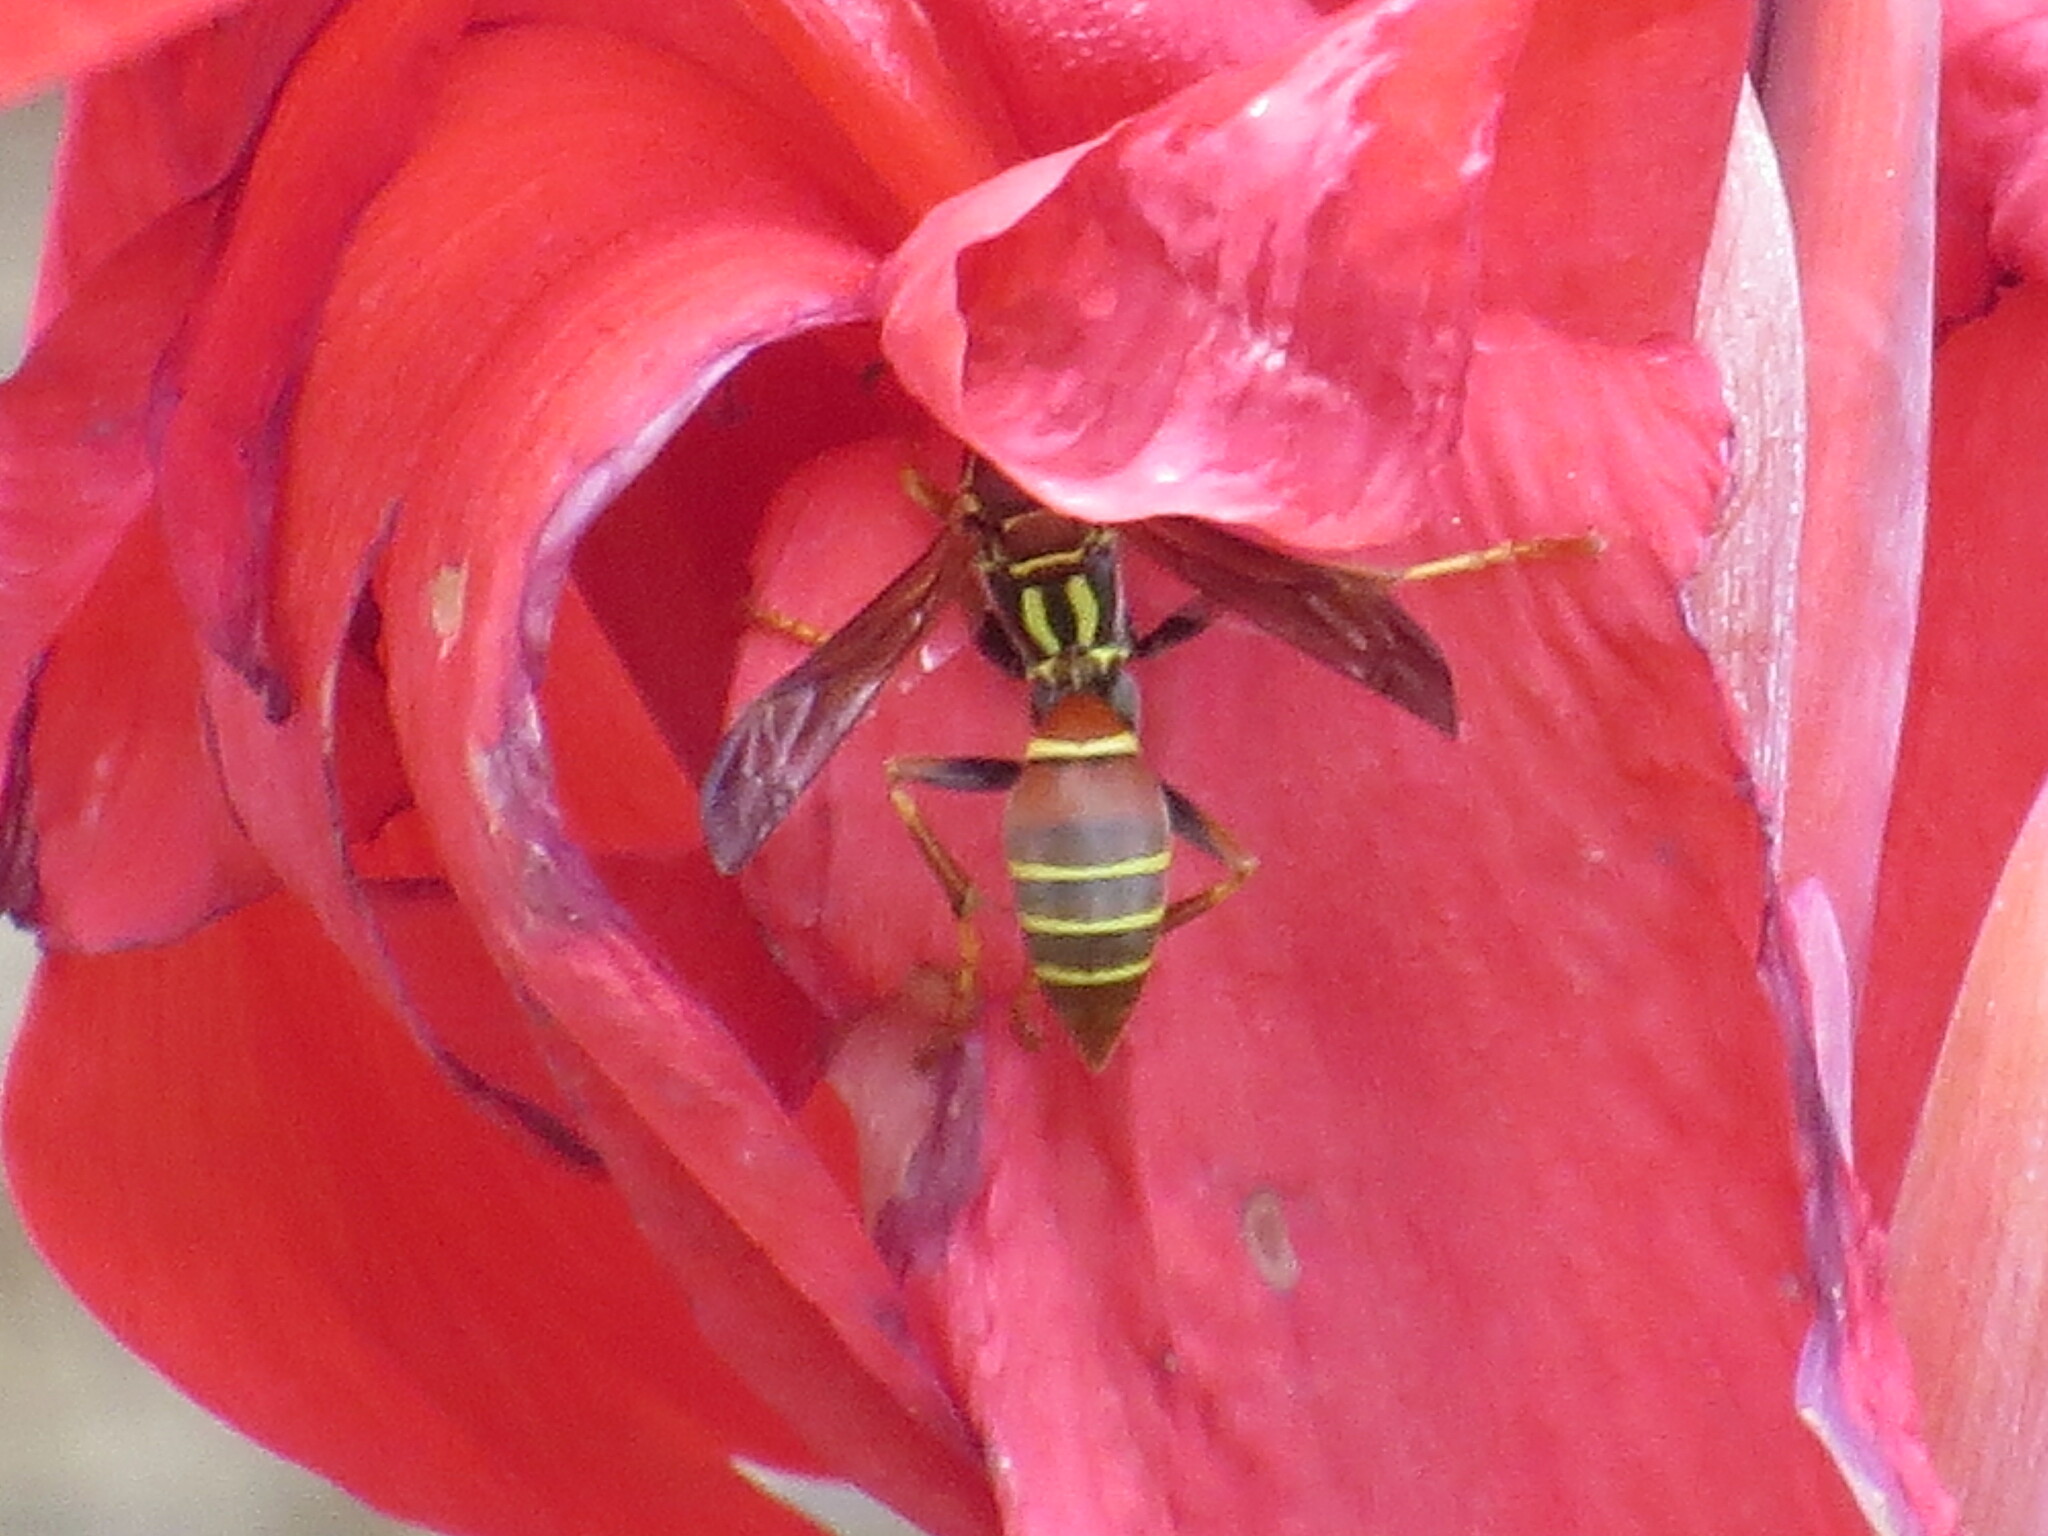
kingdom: Animalia
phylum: Arthropoda
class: Insecta
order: Hymenoptera
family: Eumenidae
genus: Polistes
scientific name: Polistes dorsalis
